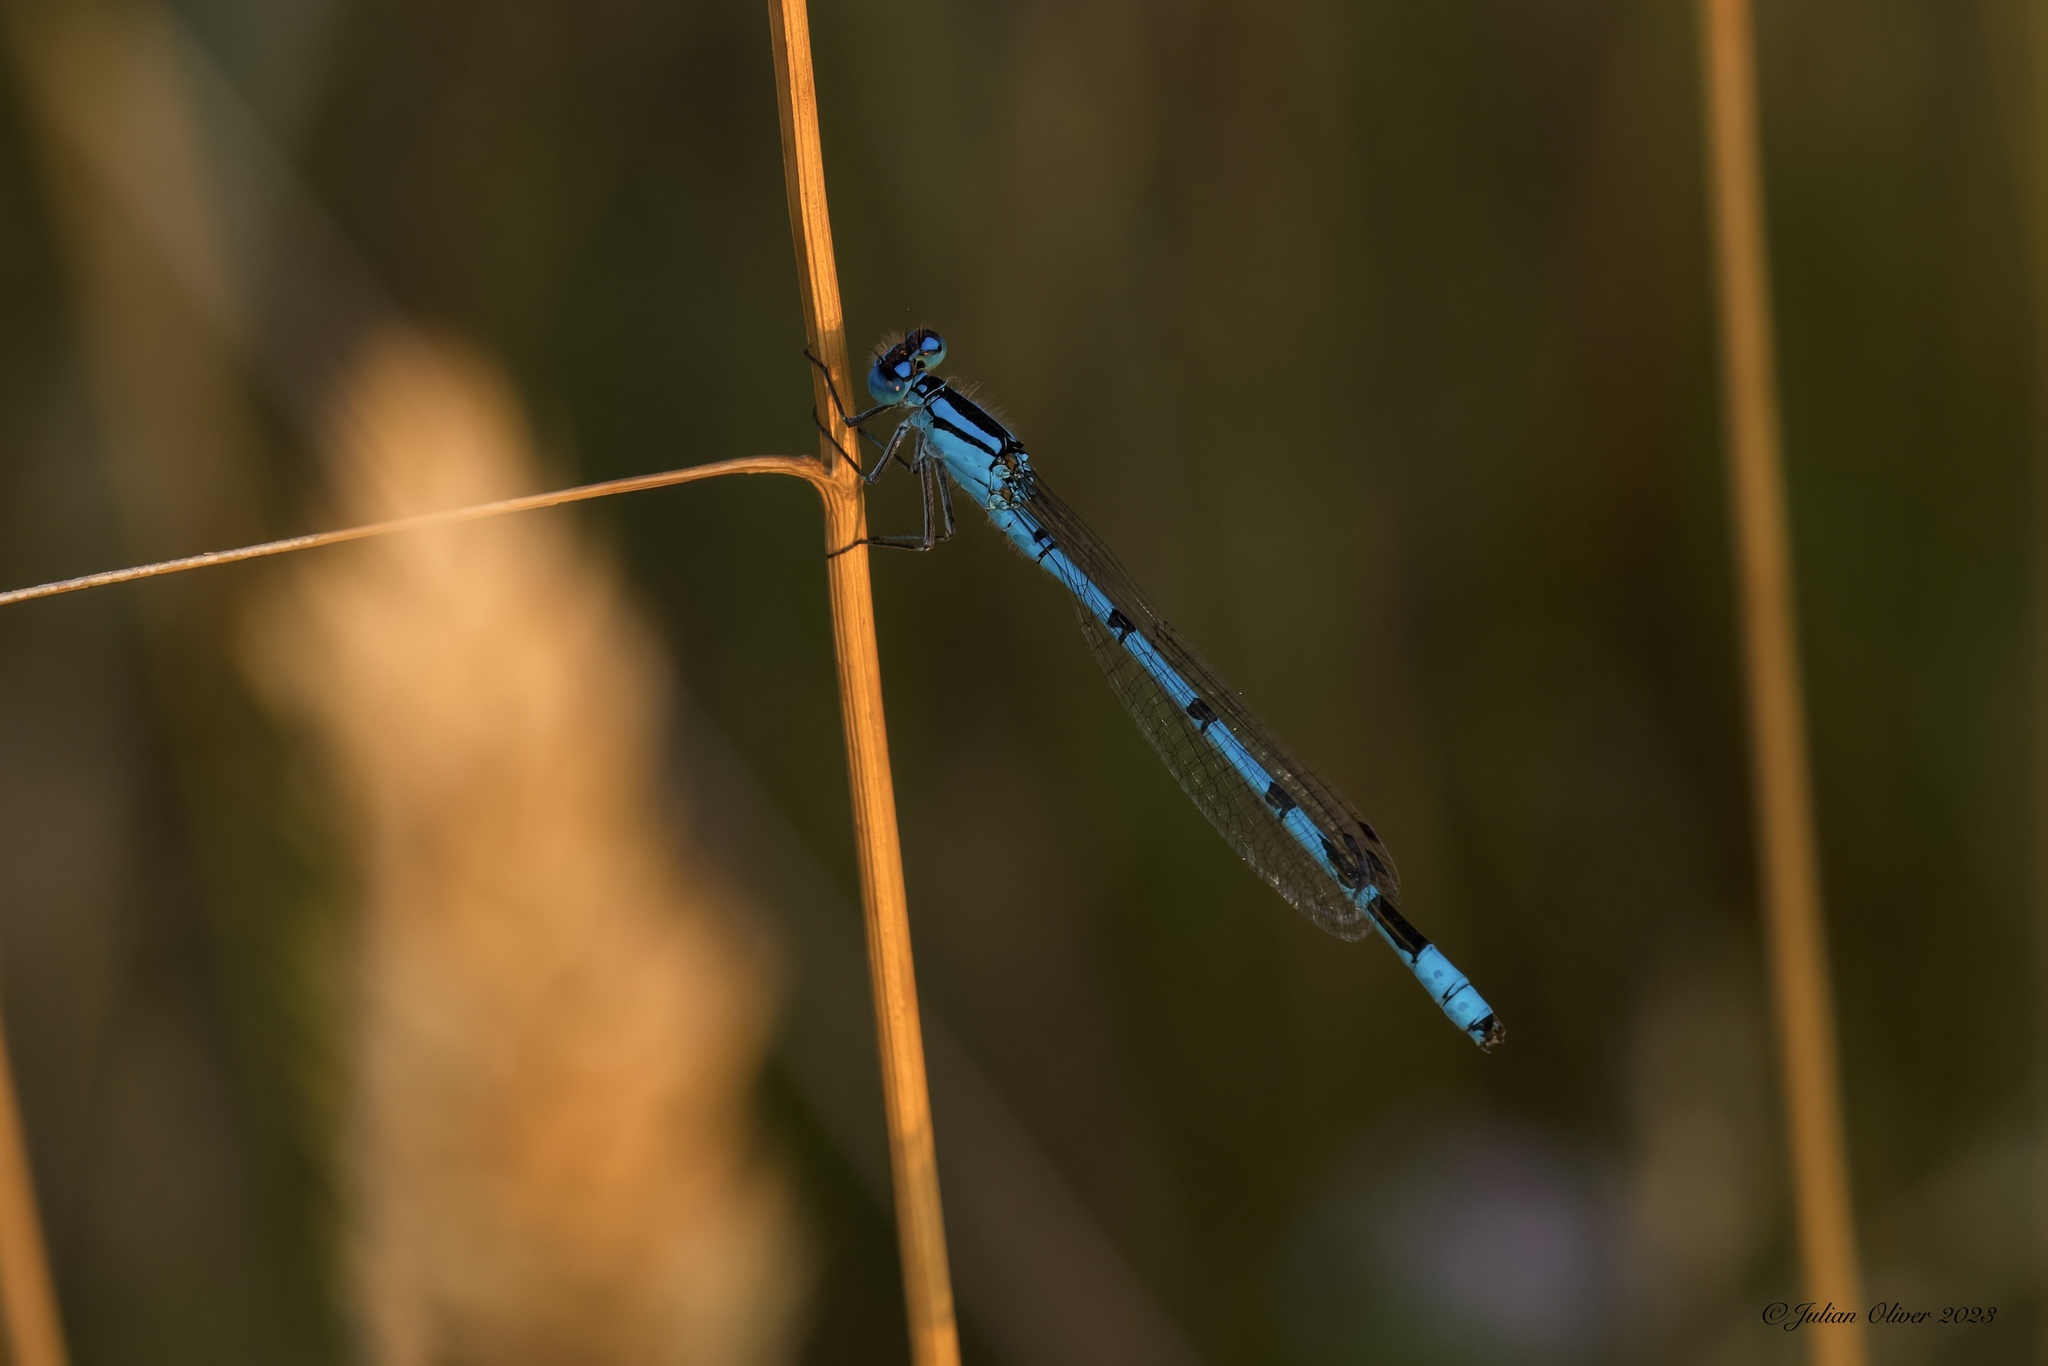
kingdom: Animalia
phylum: Arthropoda
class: Insecta
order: Odonata
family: Coenagrionidae
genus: Enallagma
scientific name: Enallagma cyathigerum
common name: Common blue damselfly
